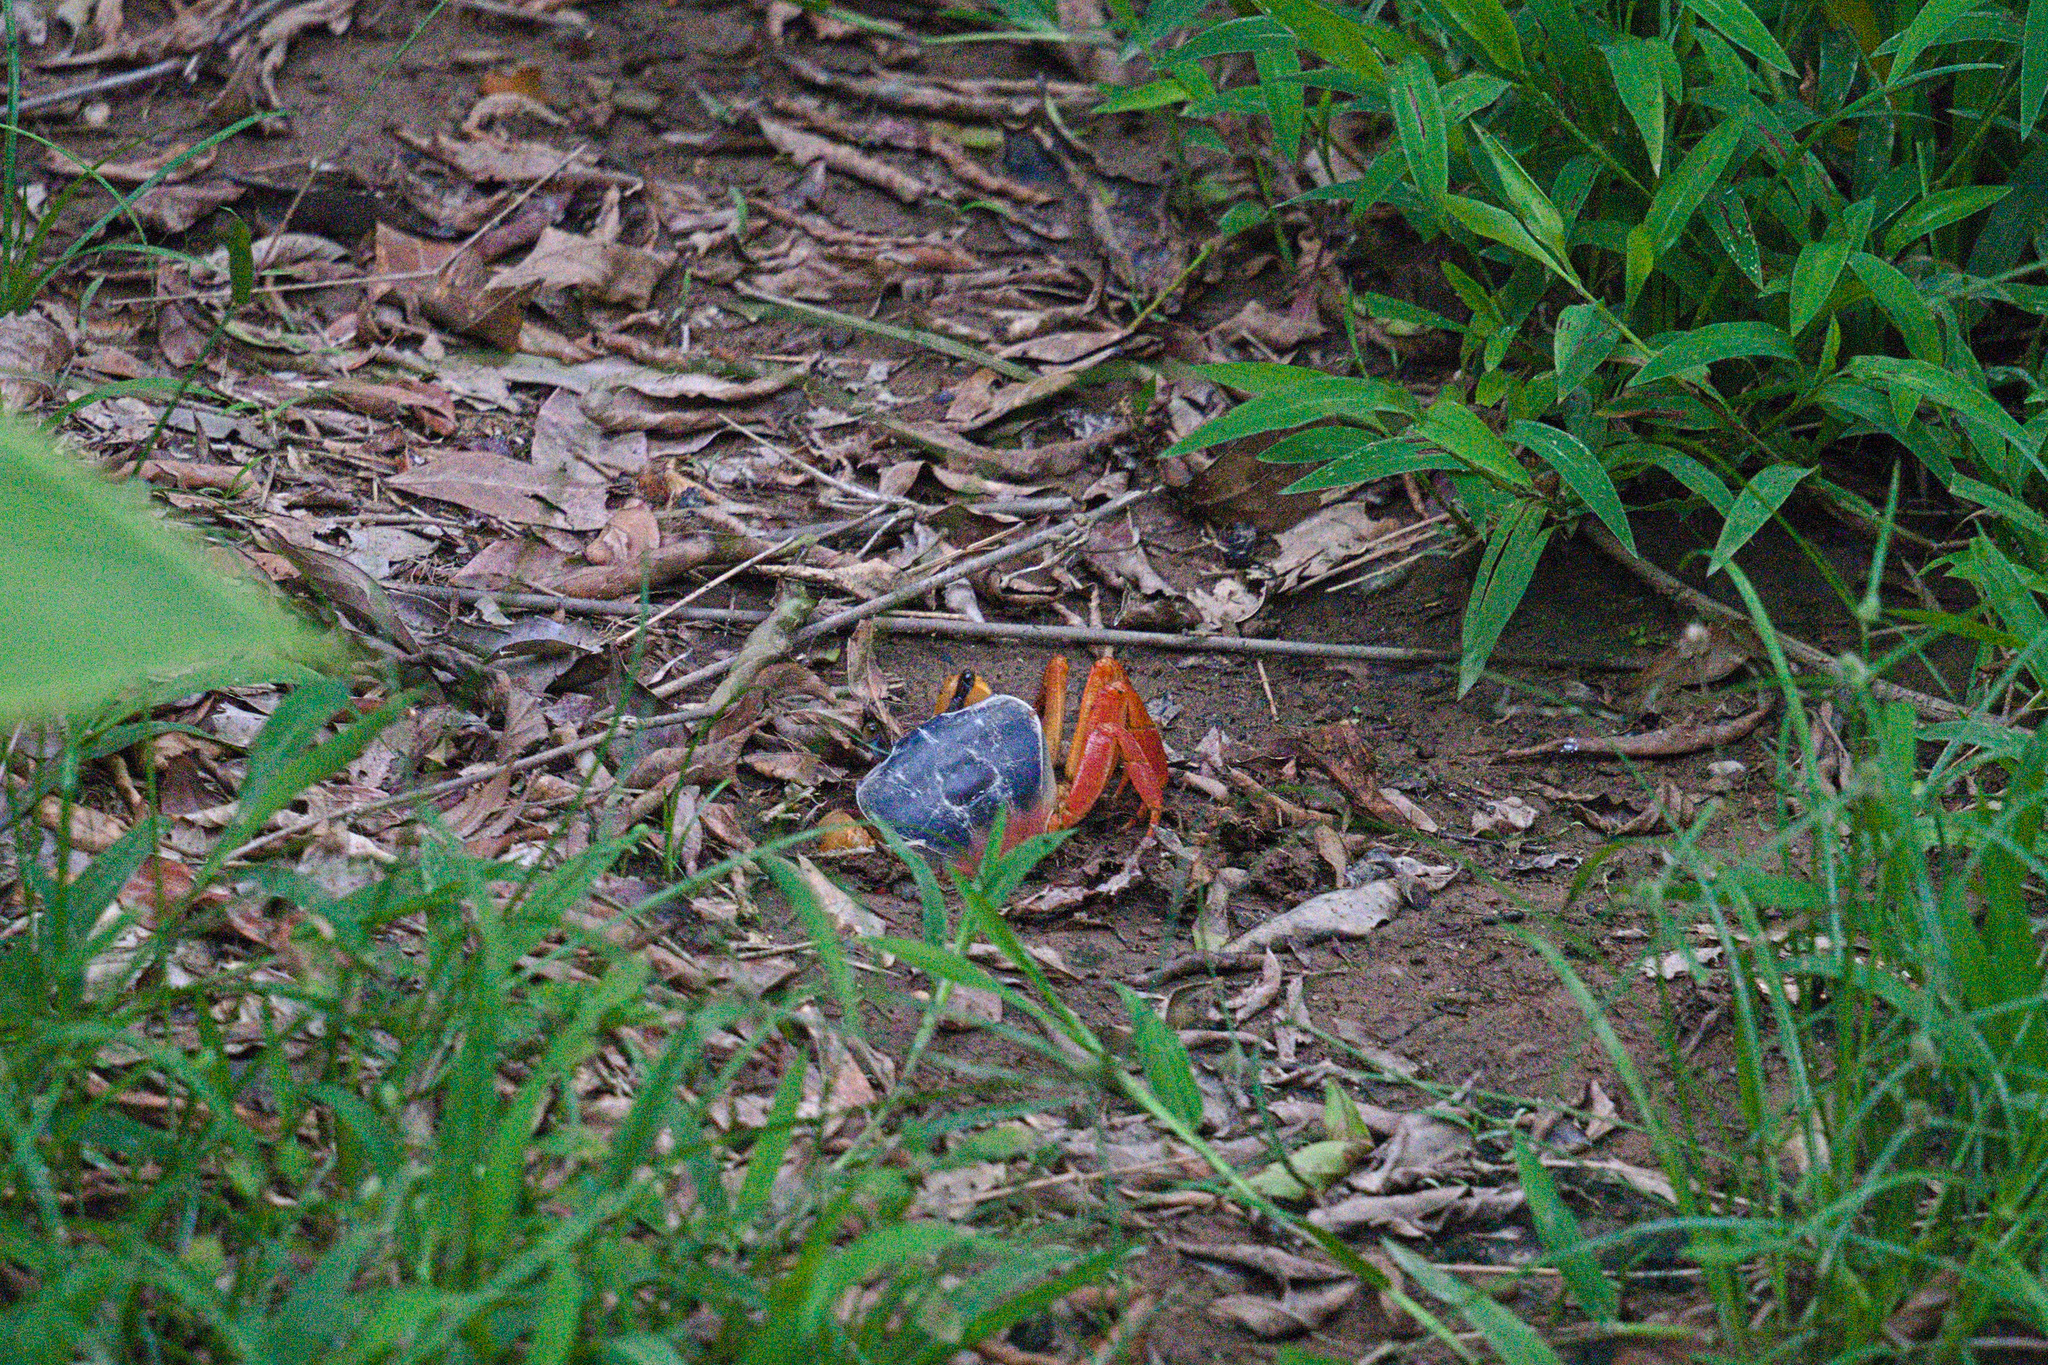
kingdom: Animalia
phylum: Arthropoda
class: Malacostraca
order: Decapoda
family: Gecarcinidae
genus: Cardisoma
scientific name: Cardisoma crassum
